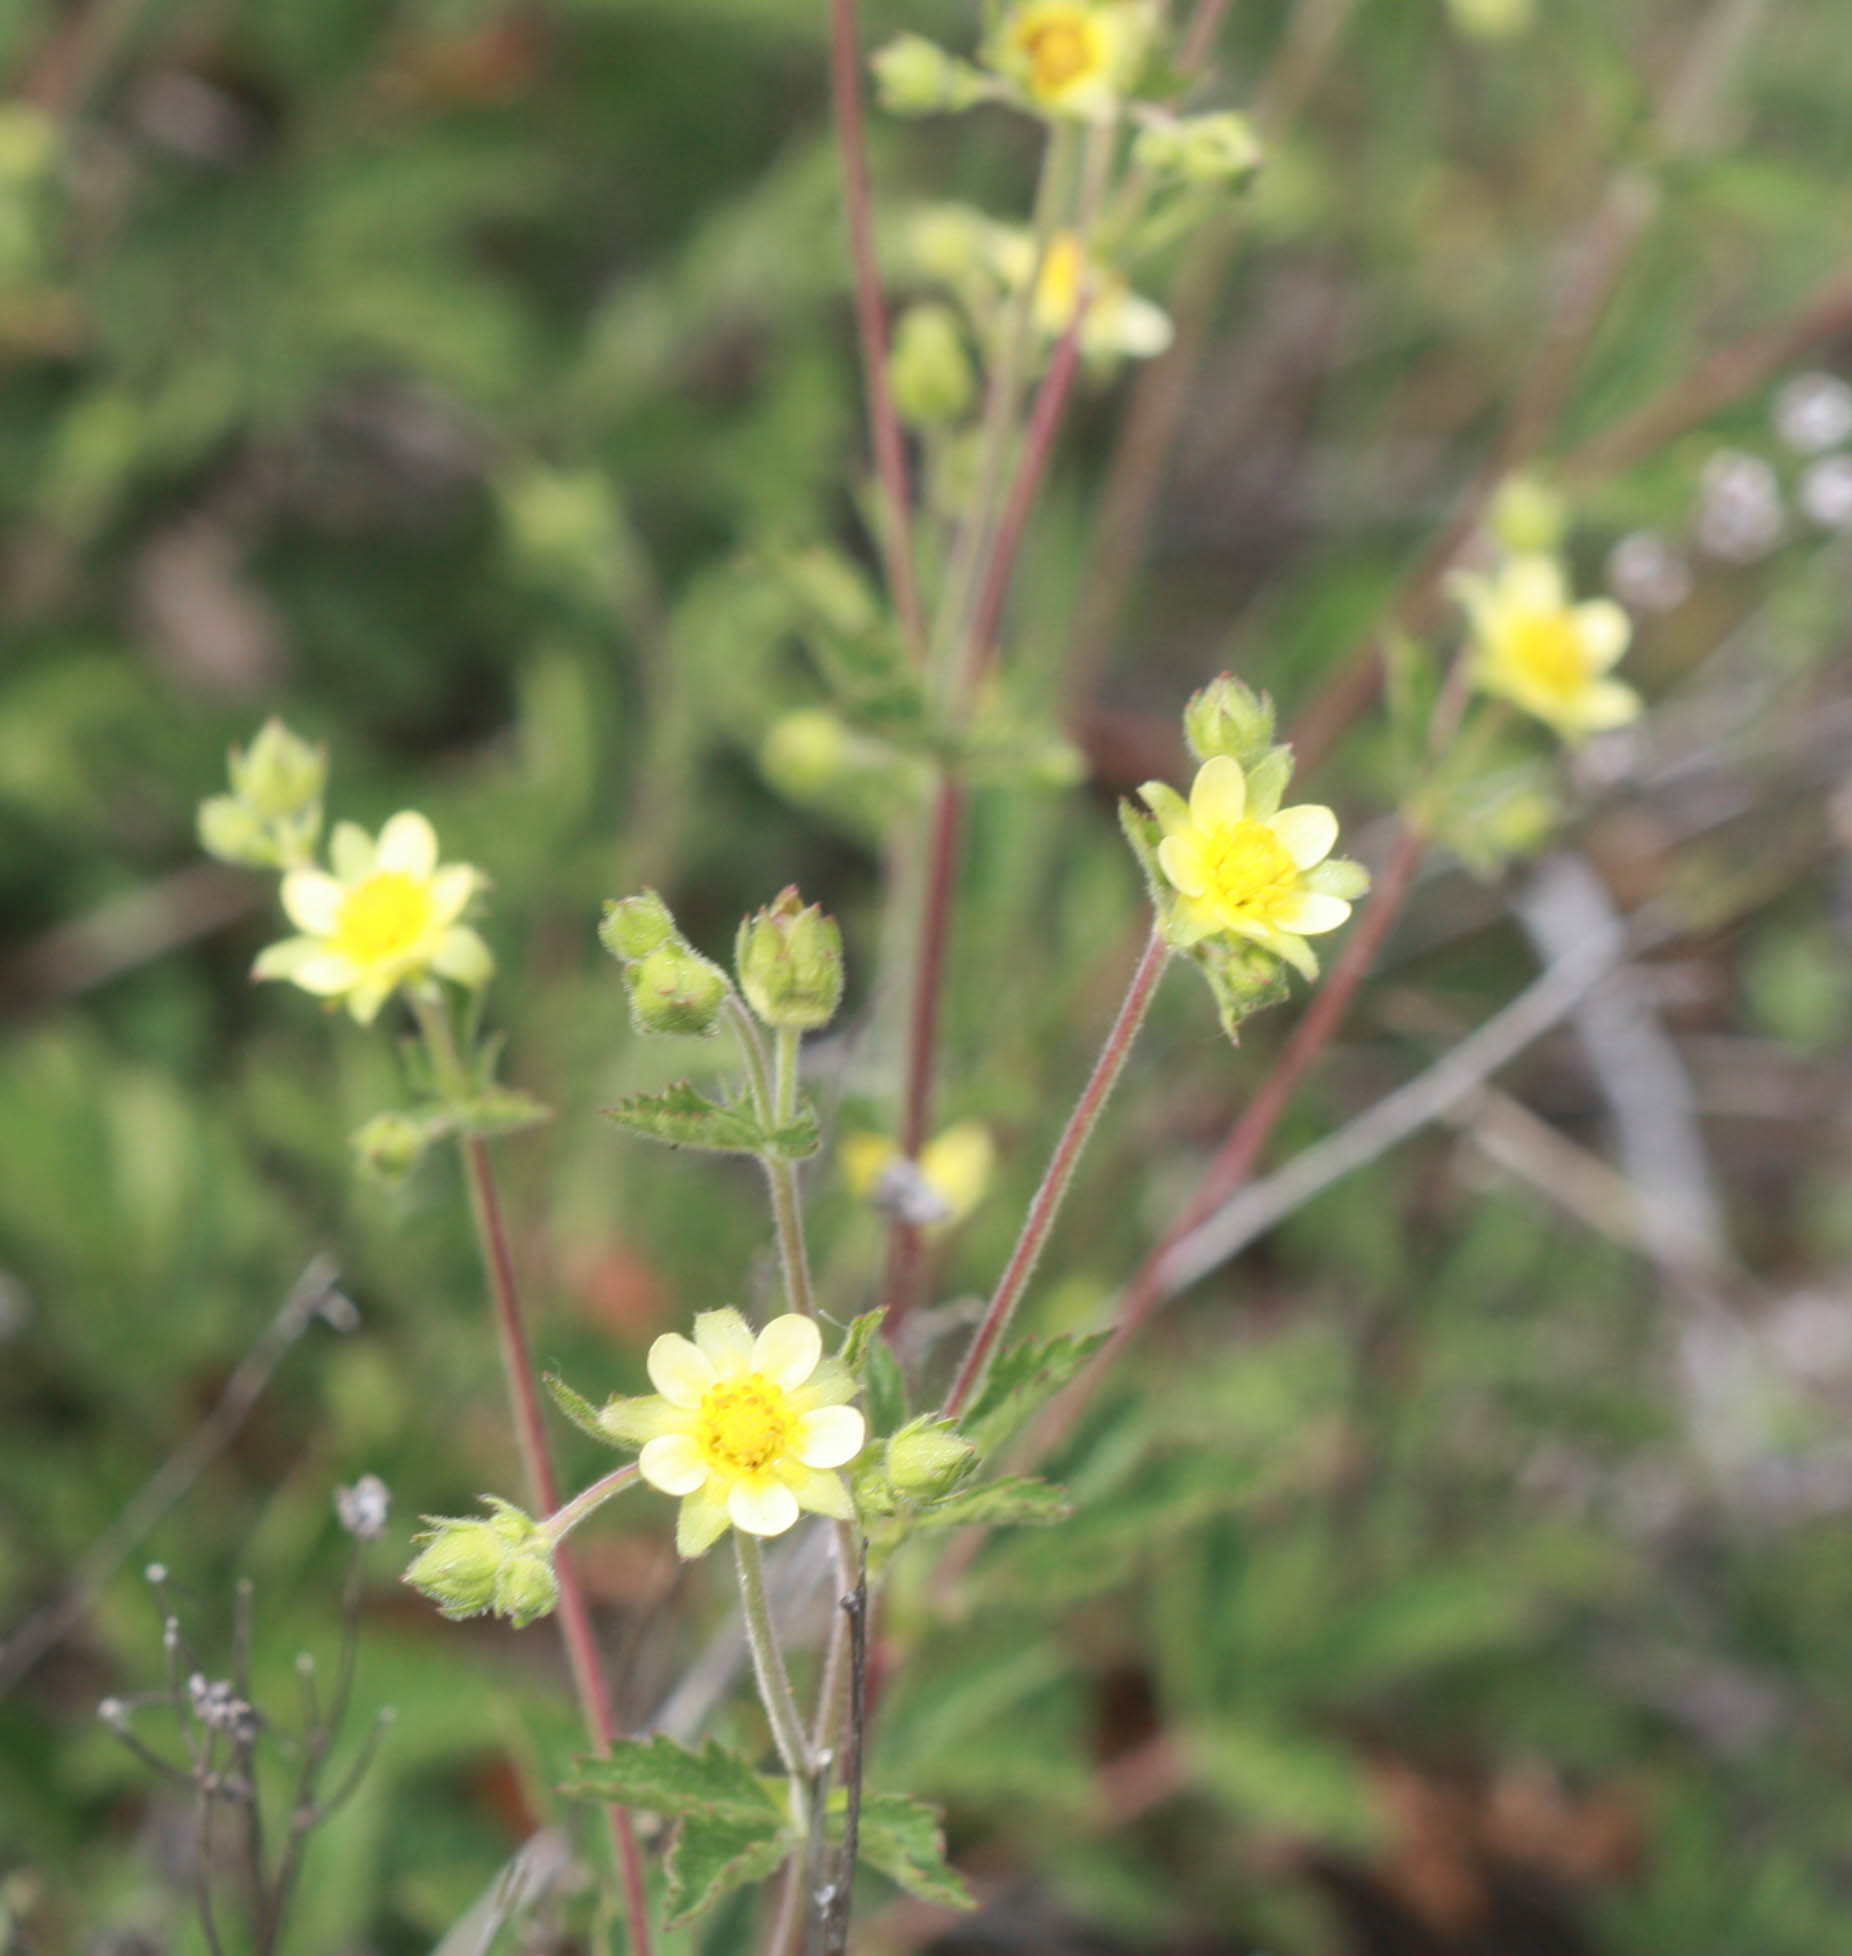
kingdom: Plantae
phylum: Tracheophyta
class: Magnoliopsida
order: Rosales
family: Rosaceae
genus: Drymocallis
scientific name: Drymocallis glandulosa
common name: Sticky cinquefoil
